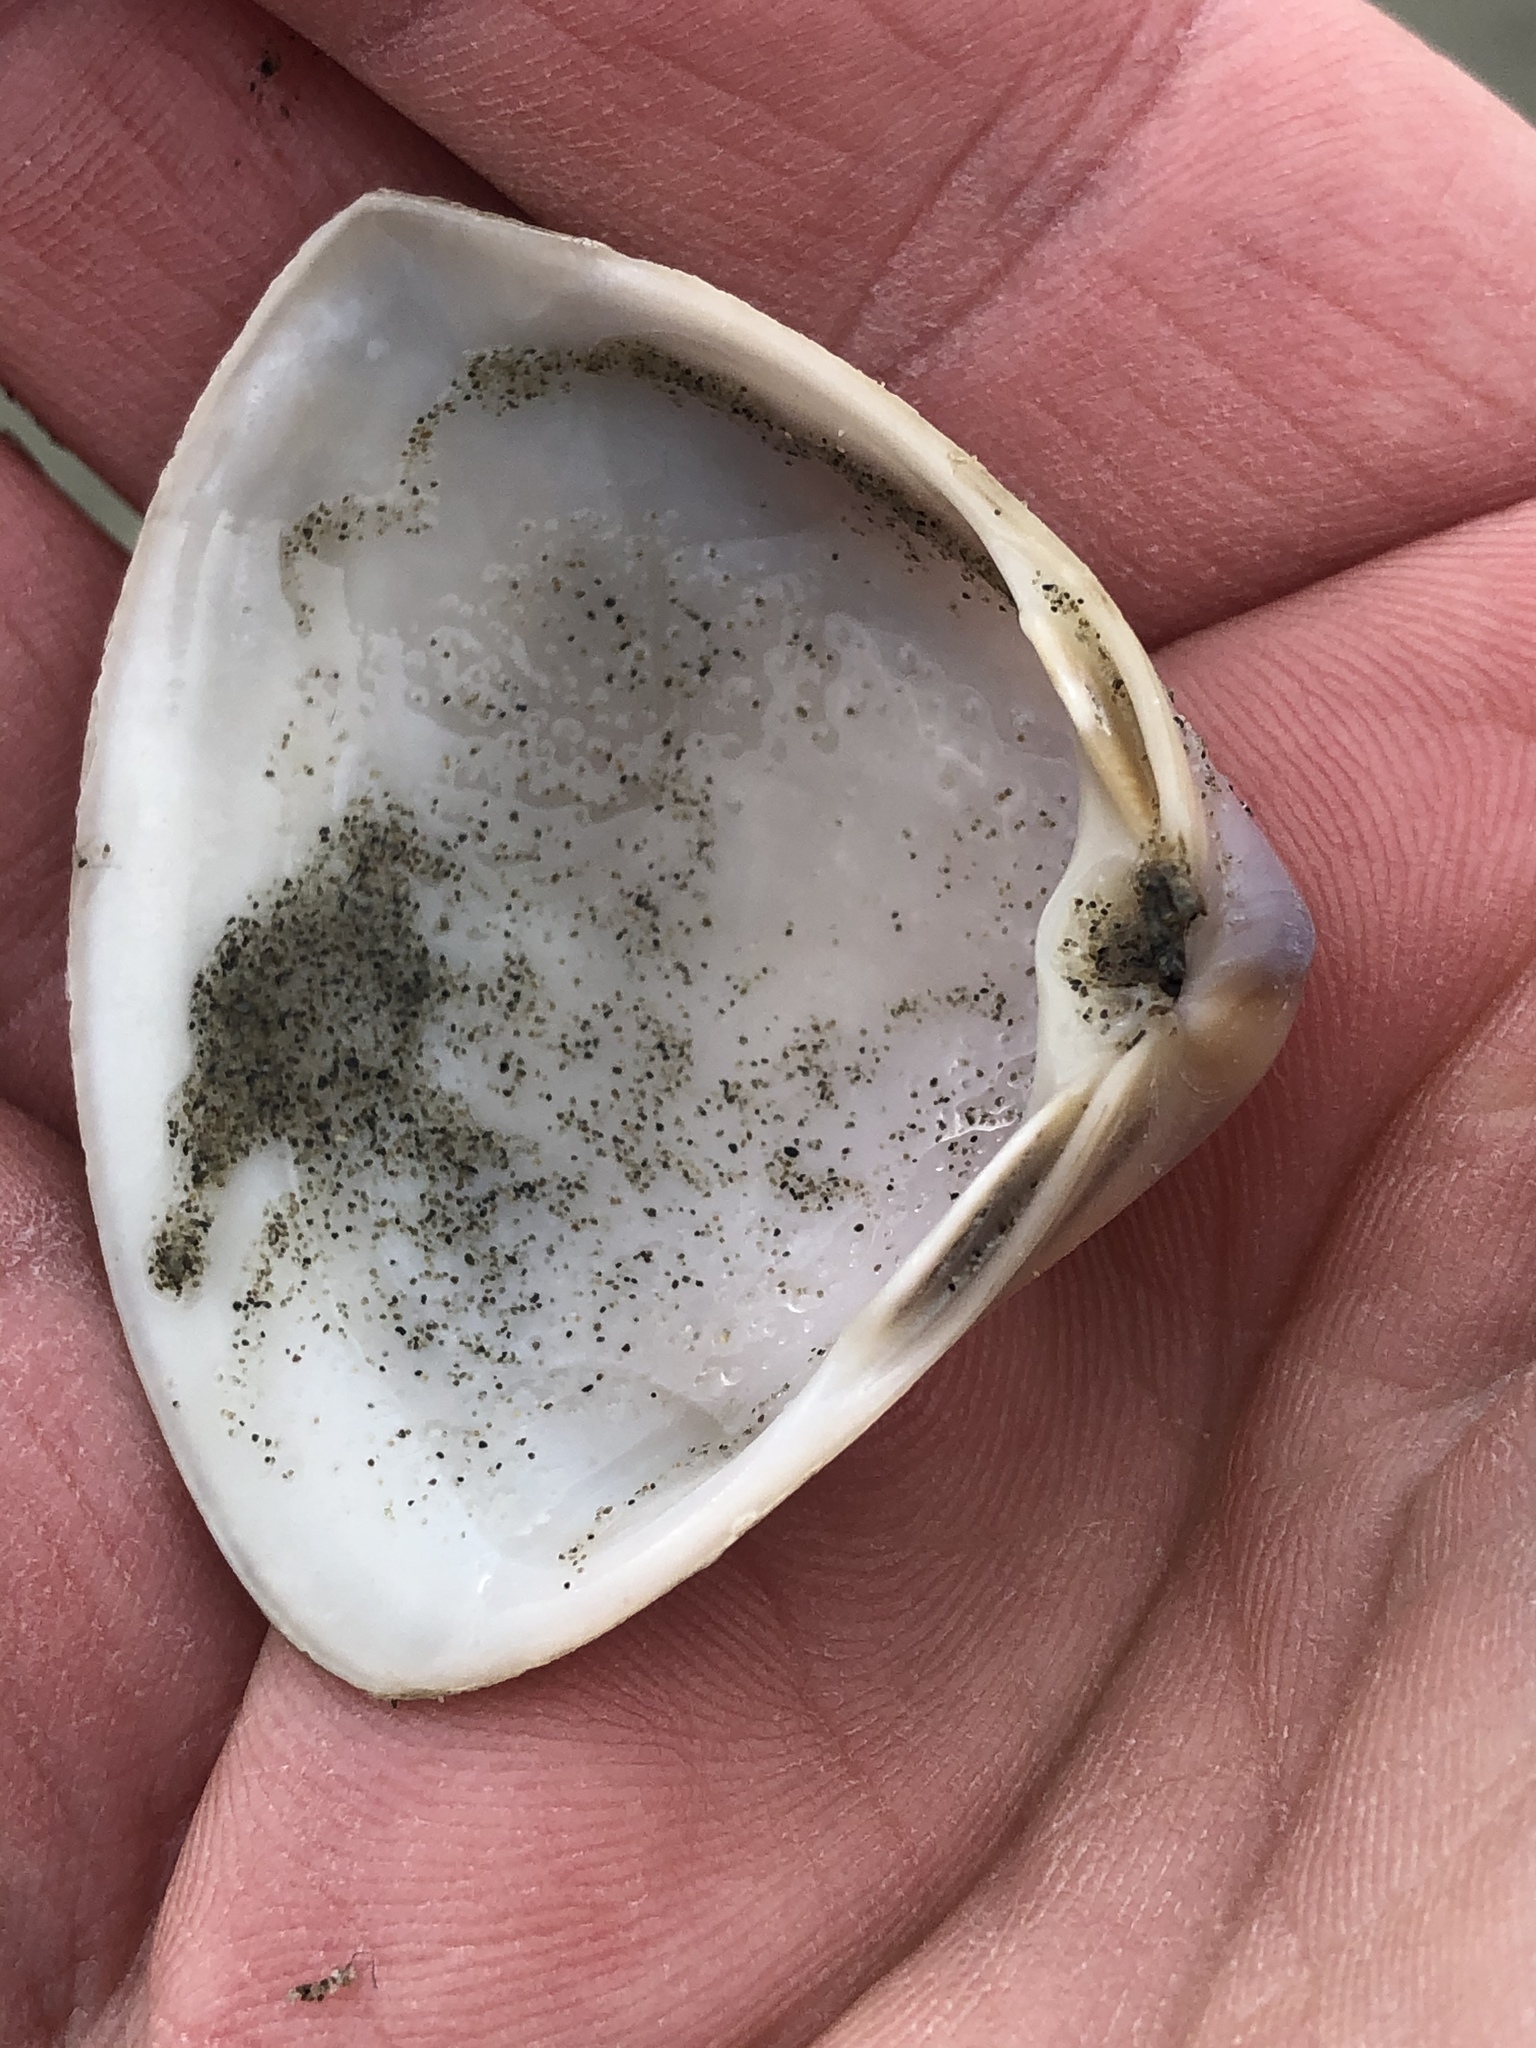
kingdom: Animalia
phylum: Mollusca
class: Bivalvia
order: Venerida
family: Mactridae
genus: Crassula
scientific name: Crassula aequilatera
